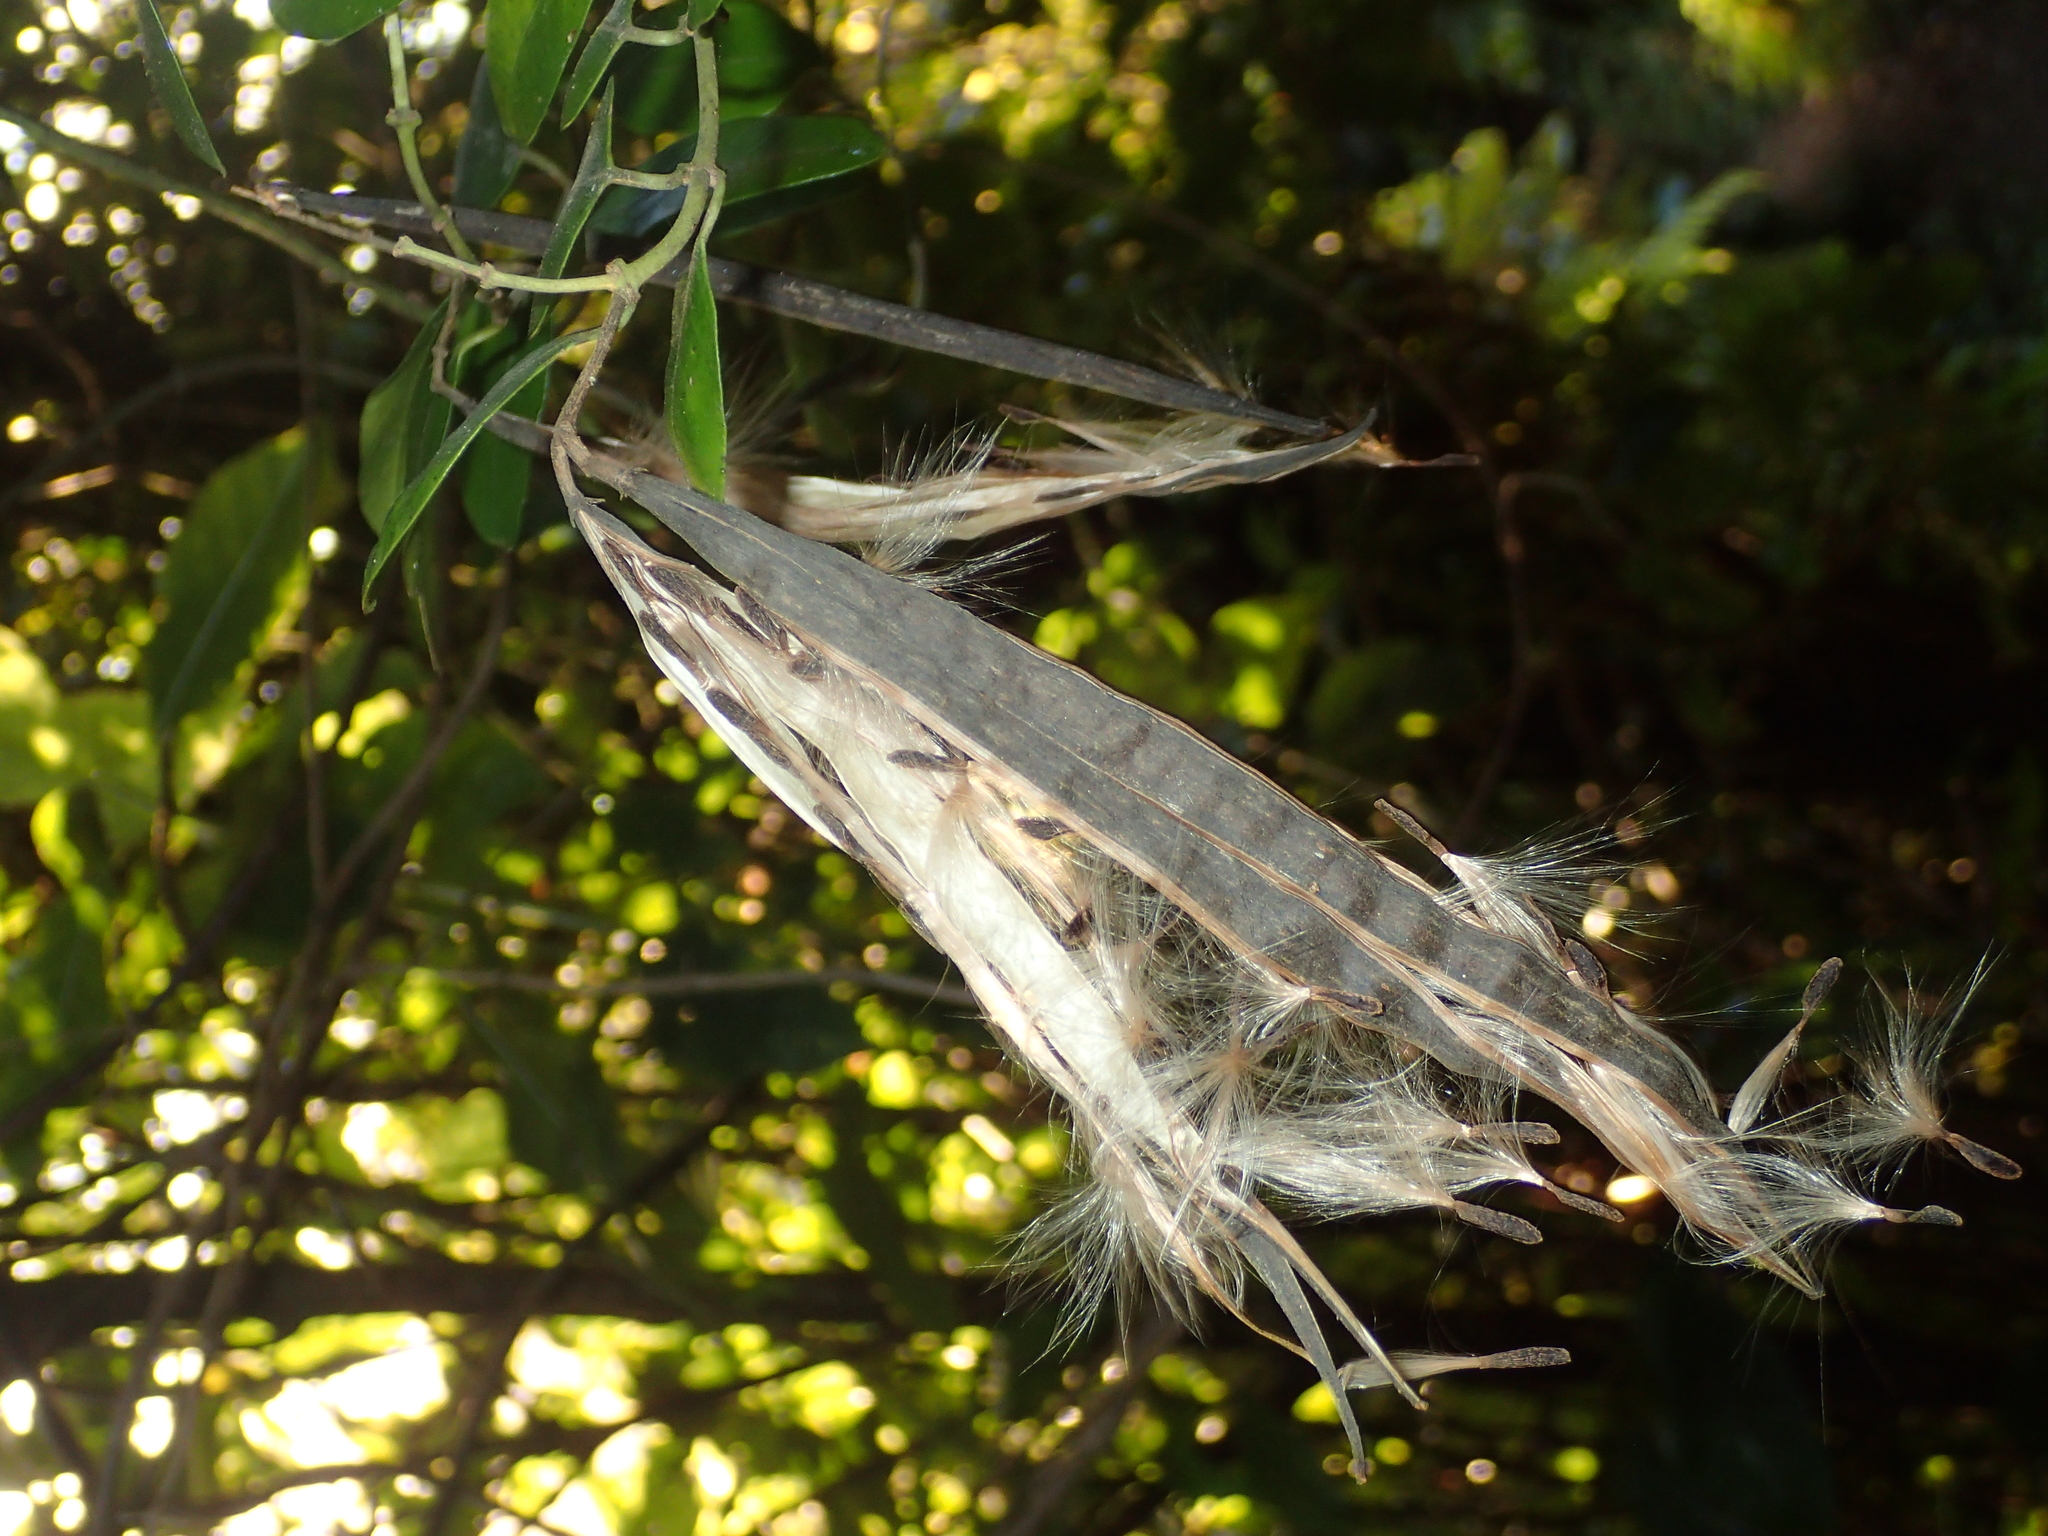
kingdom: Plantae
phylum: Tracheophyta
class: Magnoliopsida
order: Gentianales
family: Apocynaceae
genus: Parsonsia
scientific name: Parsonsia heterophylla
